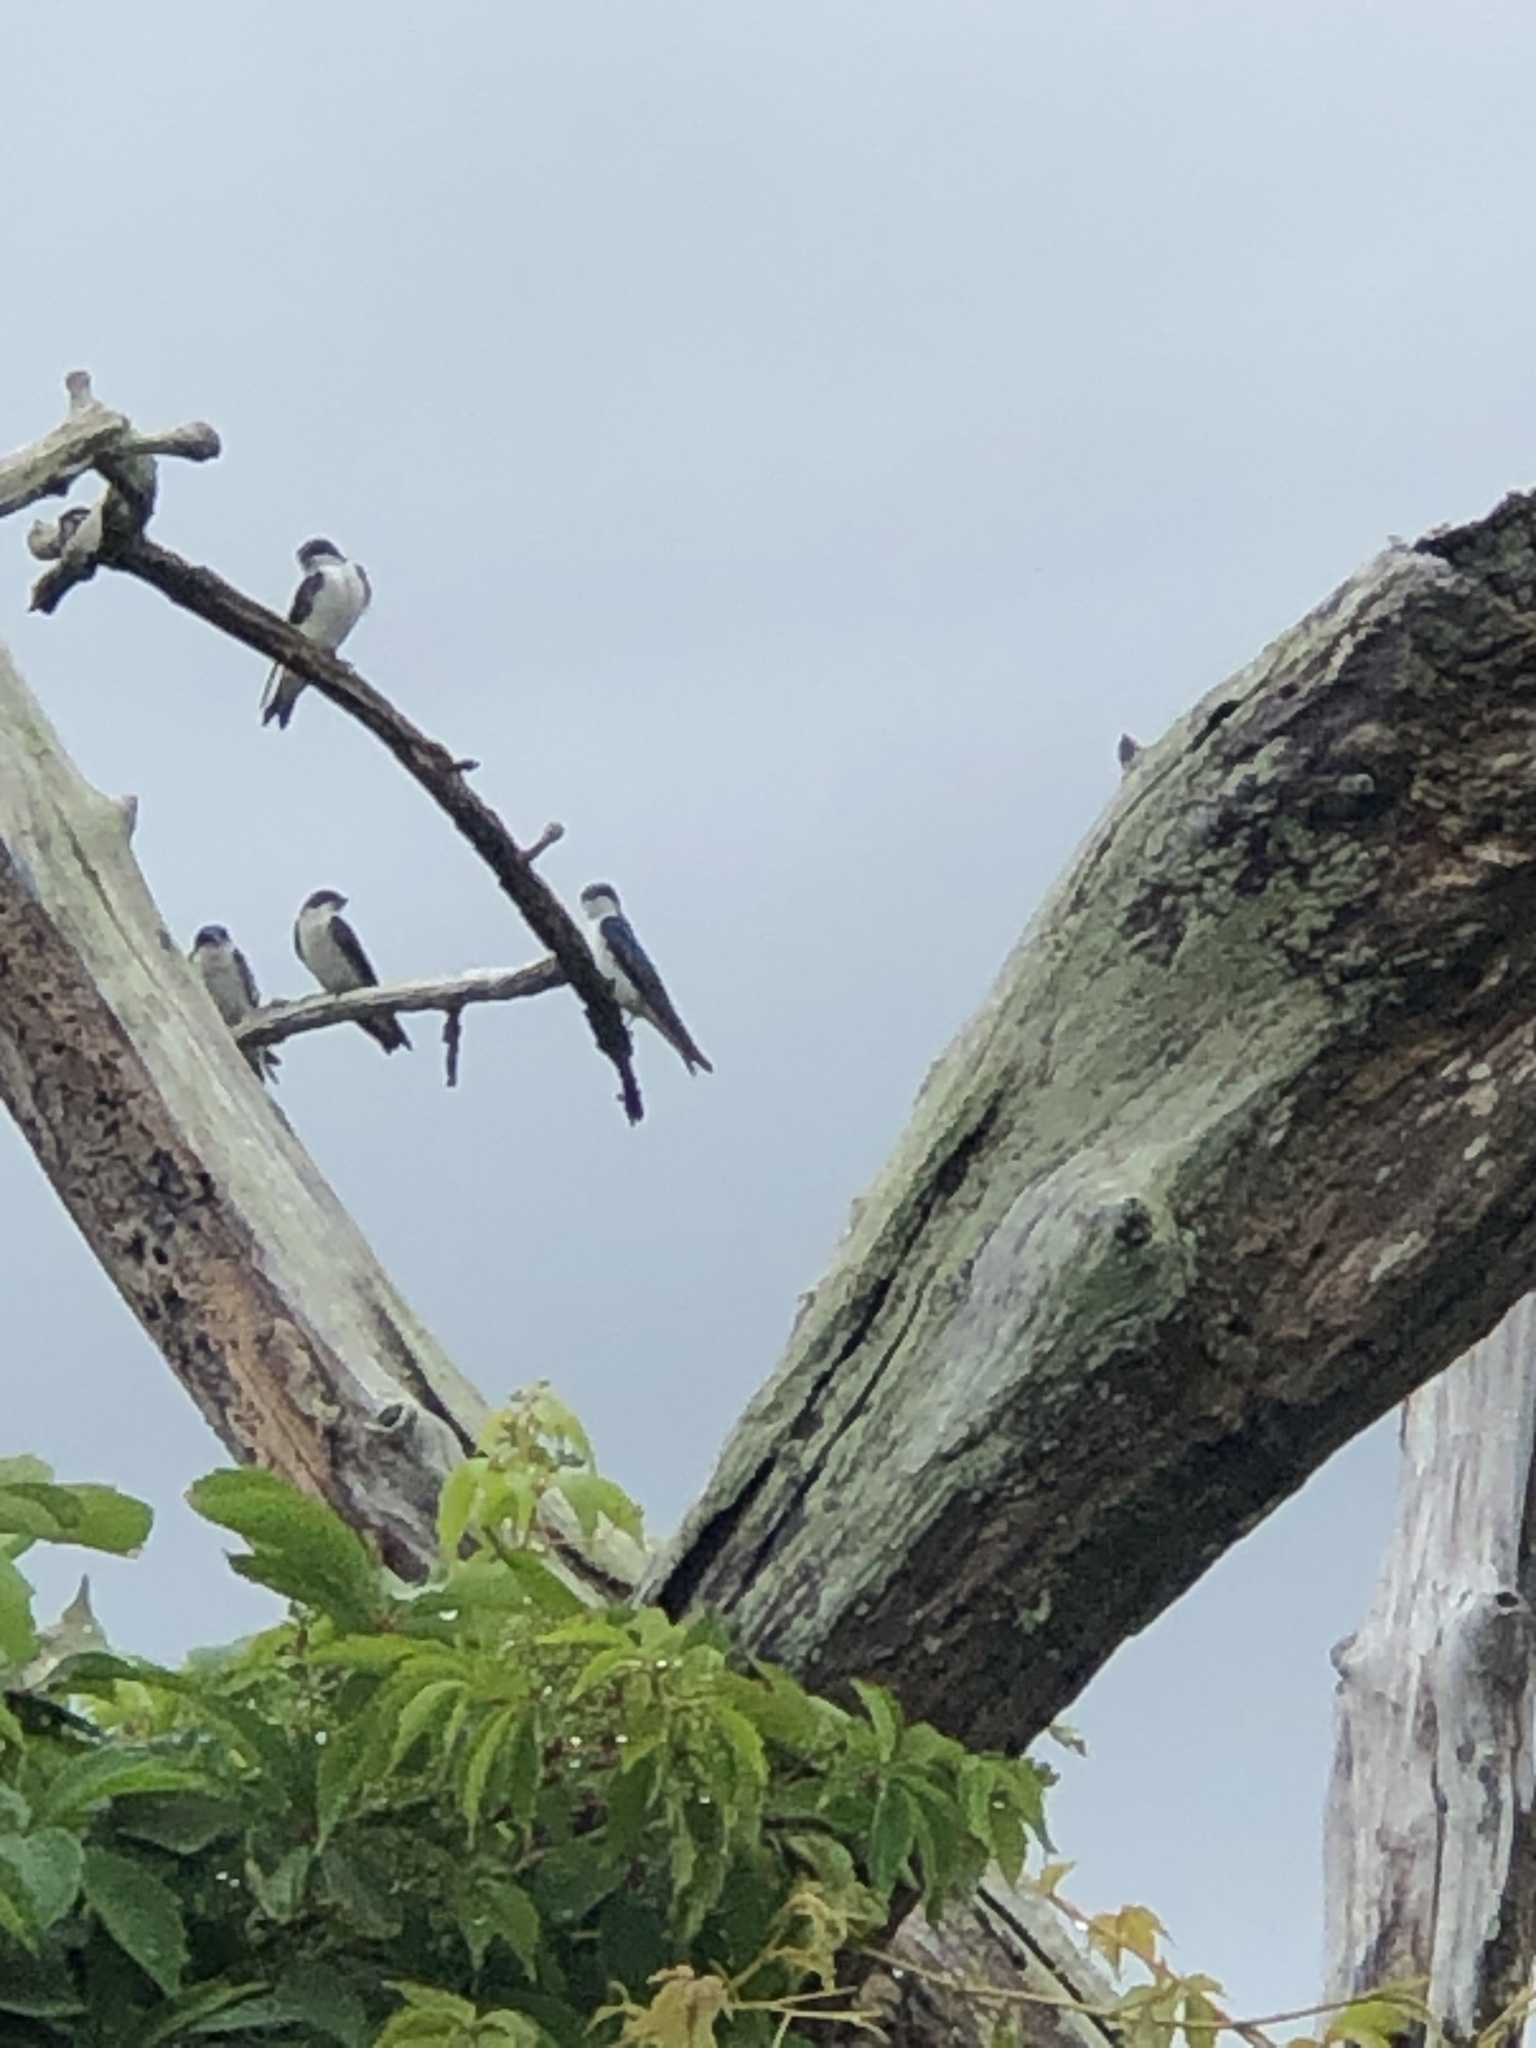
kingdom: Animalia
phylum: Chordata
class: Aves
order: Passeriformes
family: Hirundinidae
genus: Tachycineta
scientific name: Tachycineta bicolor
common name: Tree swallow
